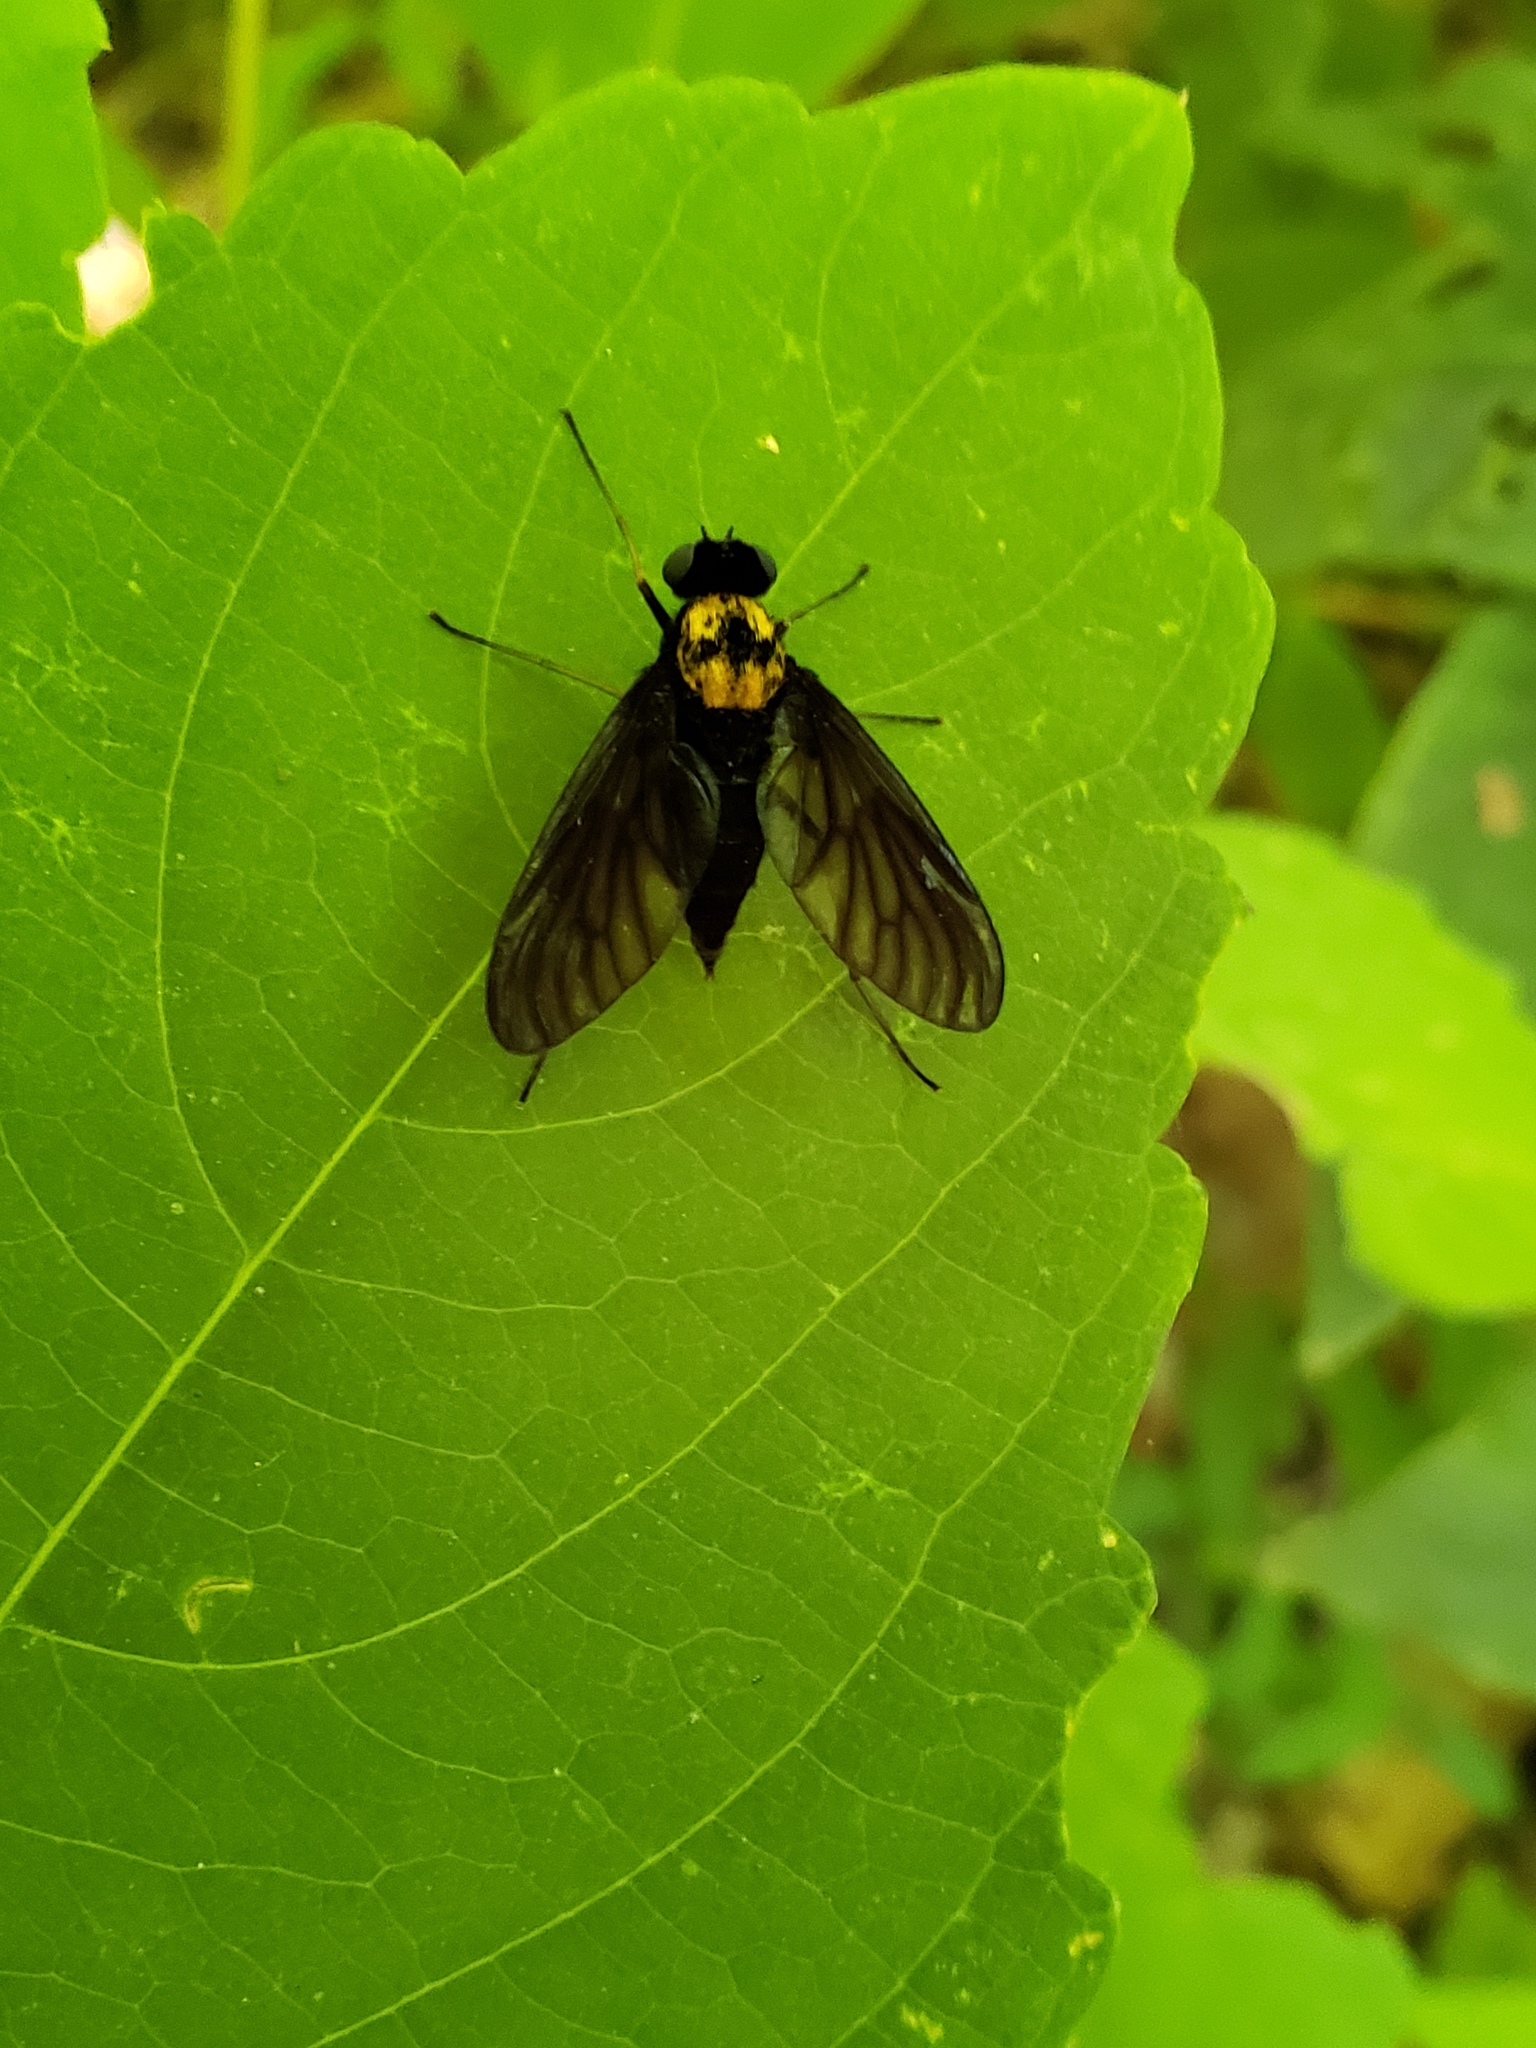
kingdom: Animalia
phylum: Arthropoda
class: Insecta
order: Diptera
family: Rhagionidae
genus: Chrysopilus
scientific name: Chrysopilus davisi
